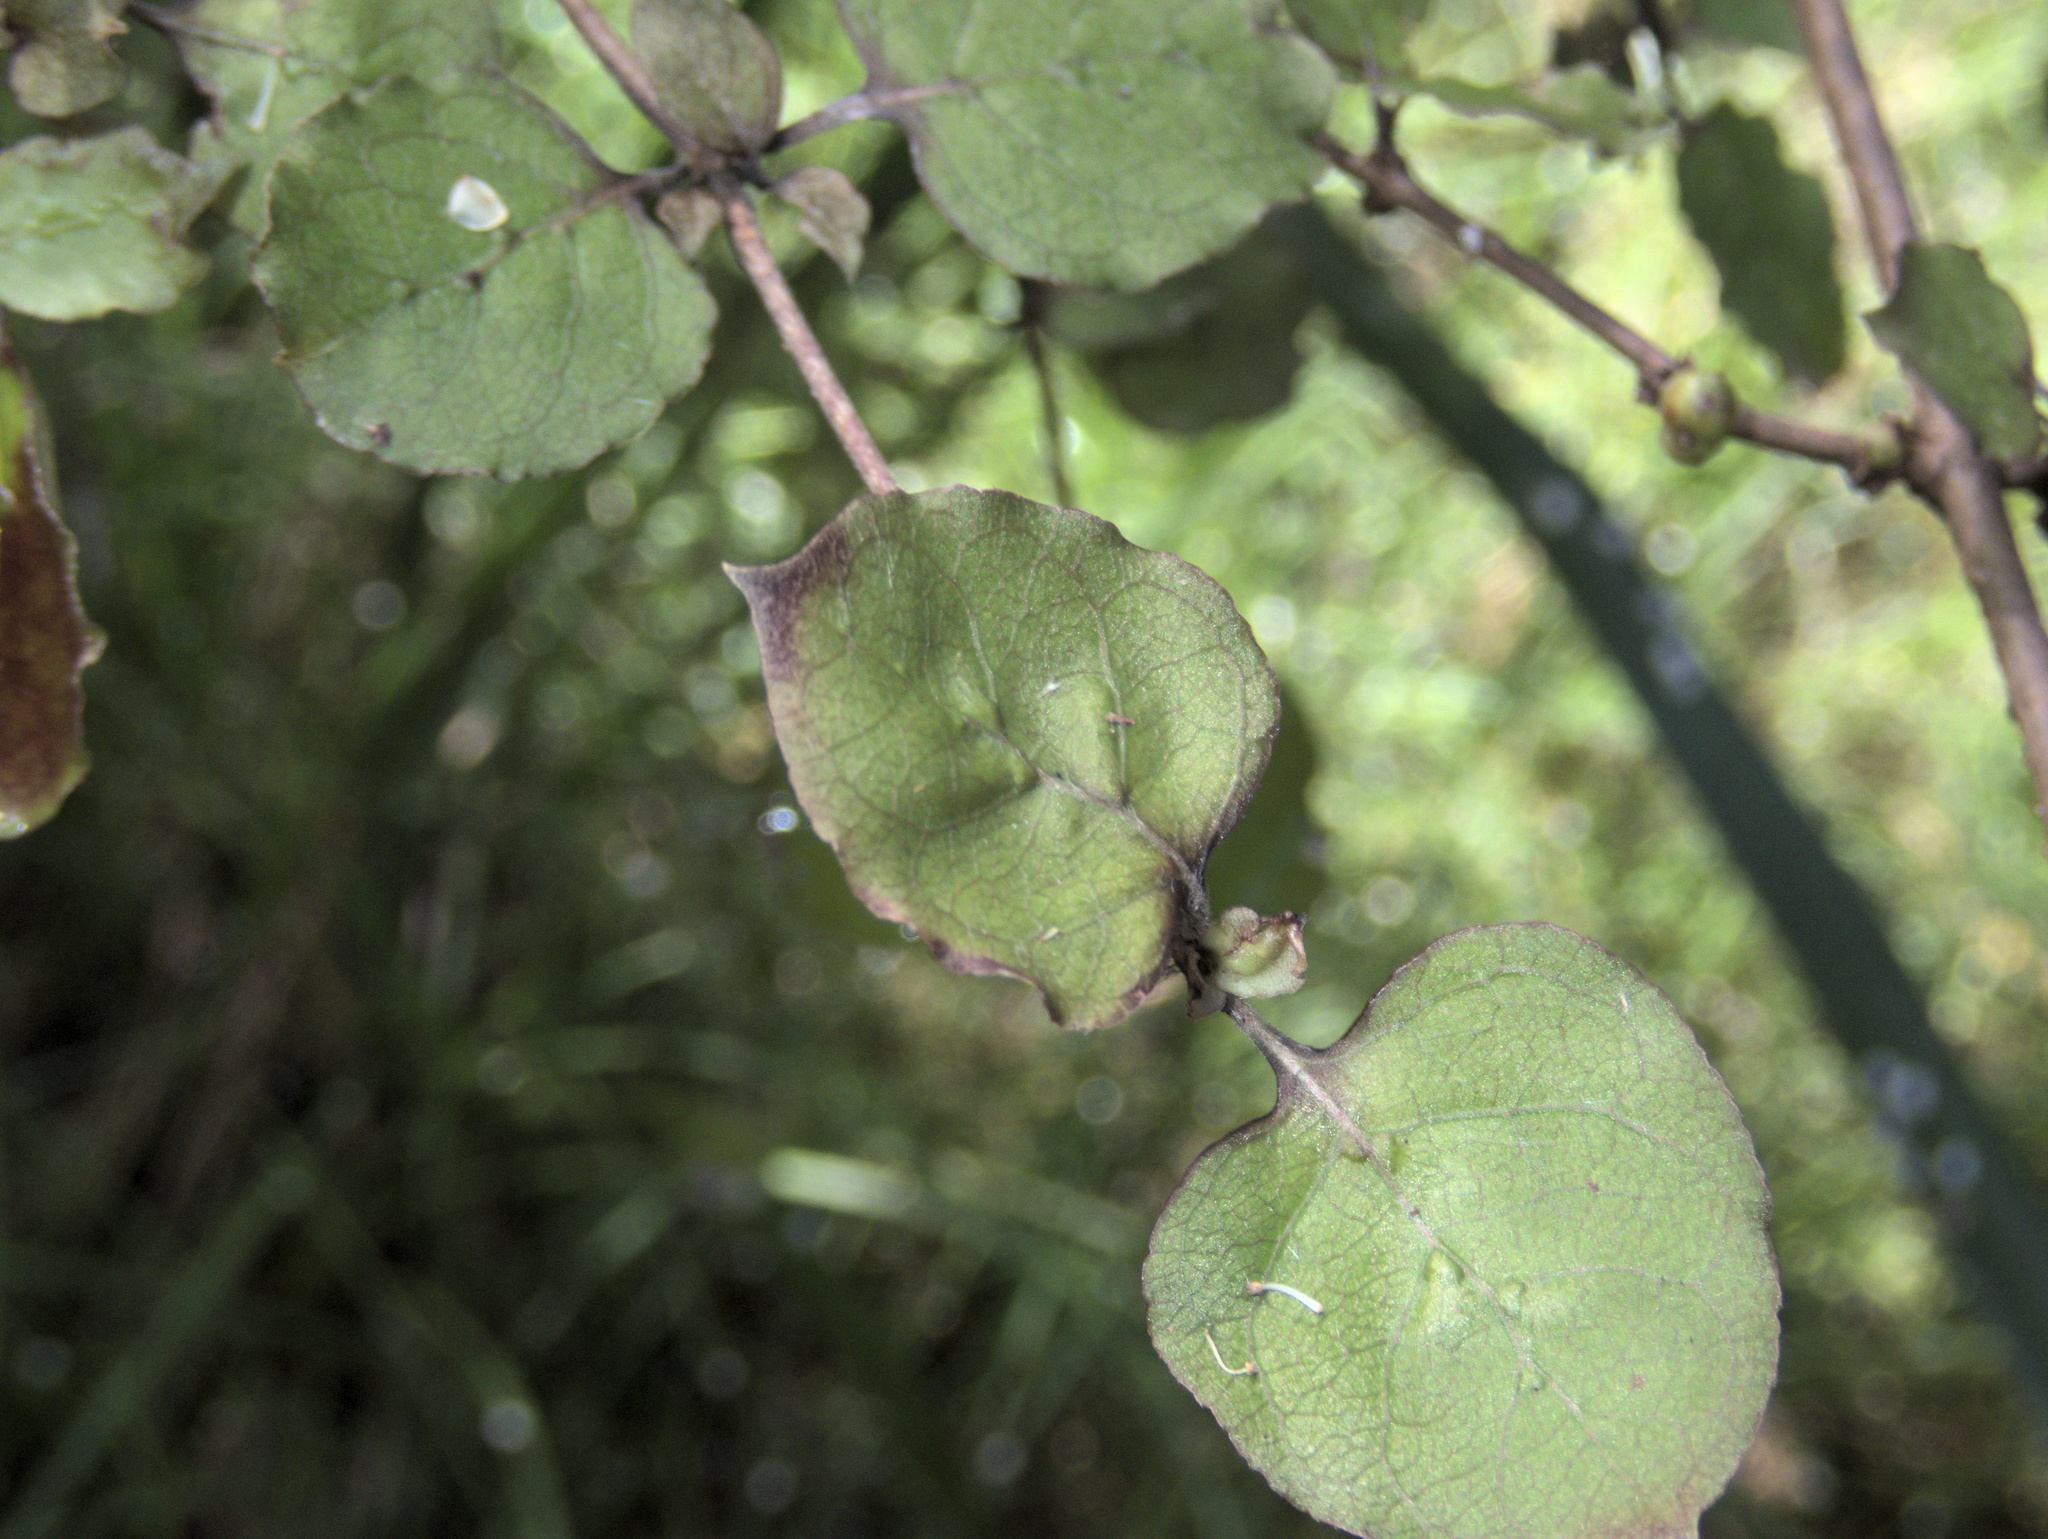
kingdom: Plantae
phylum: Tracheophyta
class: Magnoliopsida
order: Gentianales
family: Rubiaceae
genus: Coprosma
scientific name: Coprosma rotundifolia
